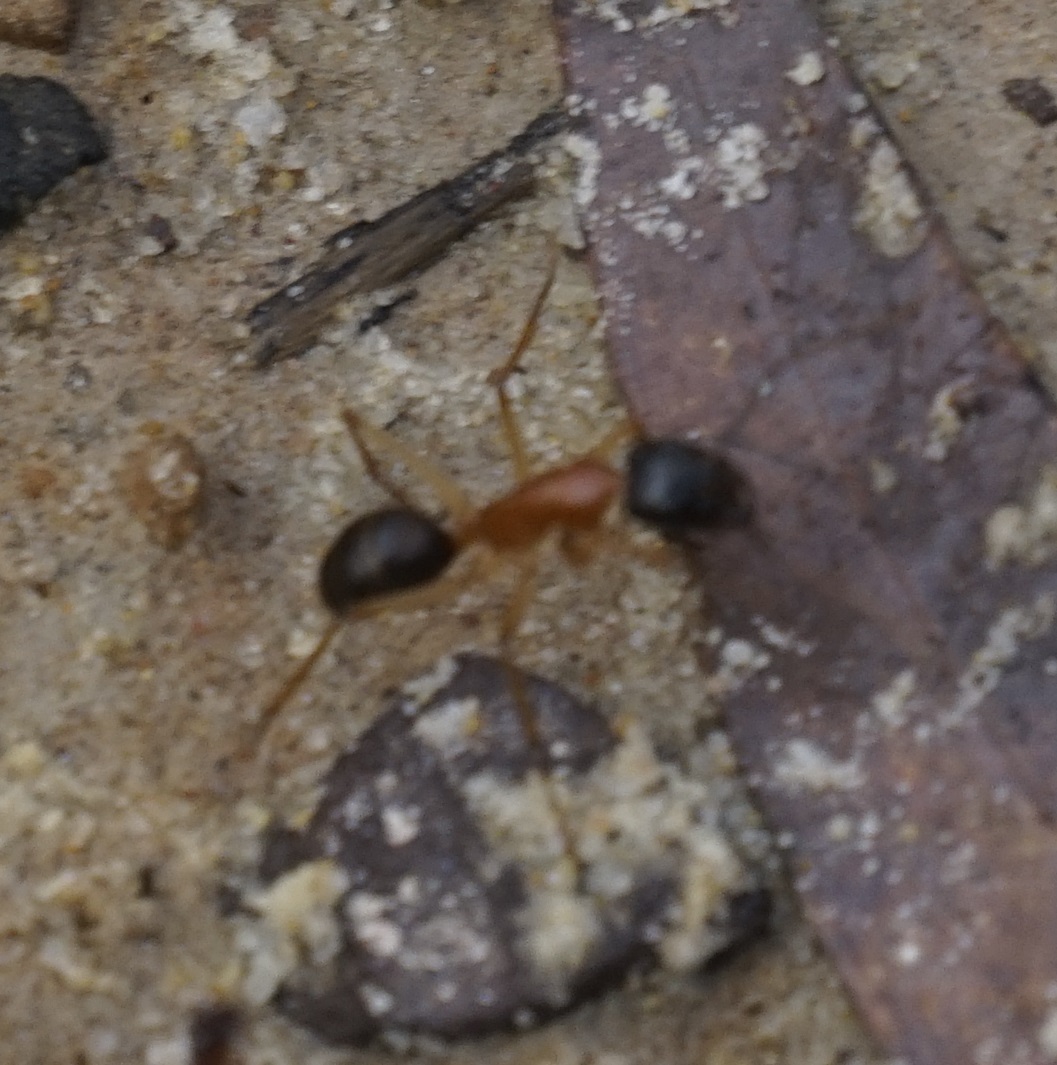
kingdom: Animalia
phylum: Arthropoda
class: Insecta
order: Hymenoptera
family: Formicidae
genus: Camponotus
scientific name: Camponotus nigriceps
